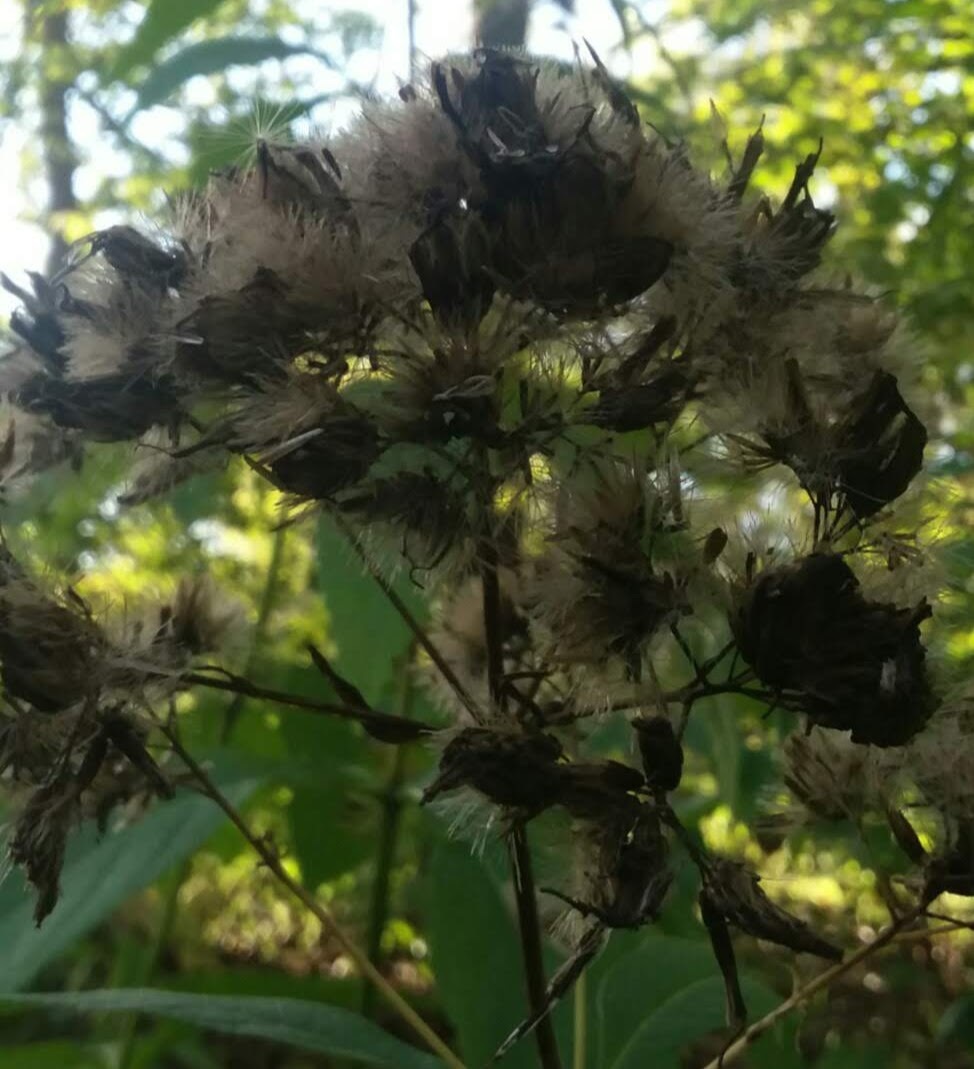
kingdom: Plantae
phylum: Tracheophyta
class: Magnoliopsida
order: Asterales
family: Asteraceae
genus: Eutrochium
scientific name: Eutrochium purpureum
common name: Gravelroot
